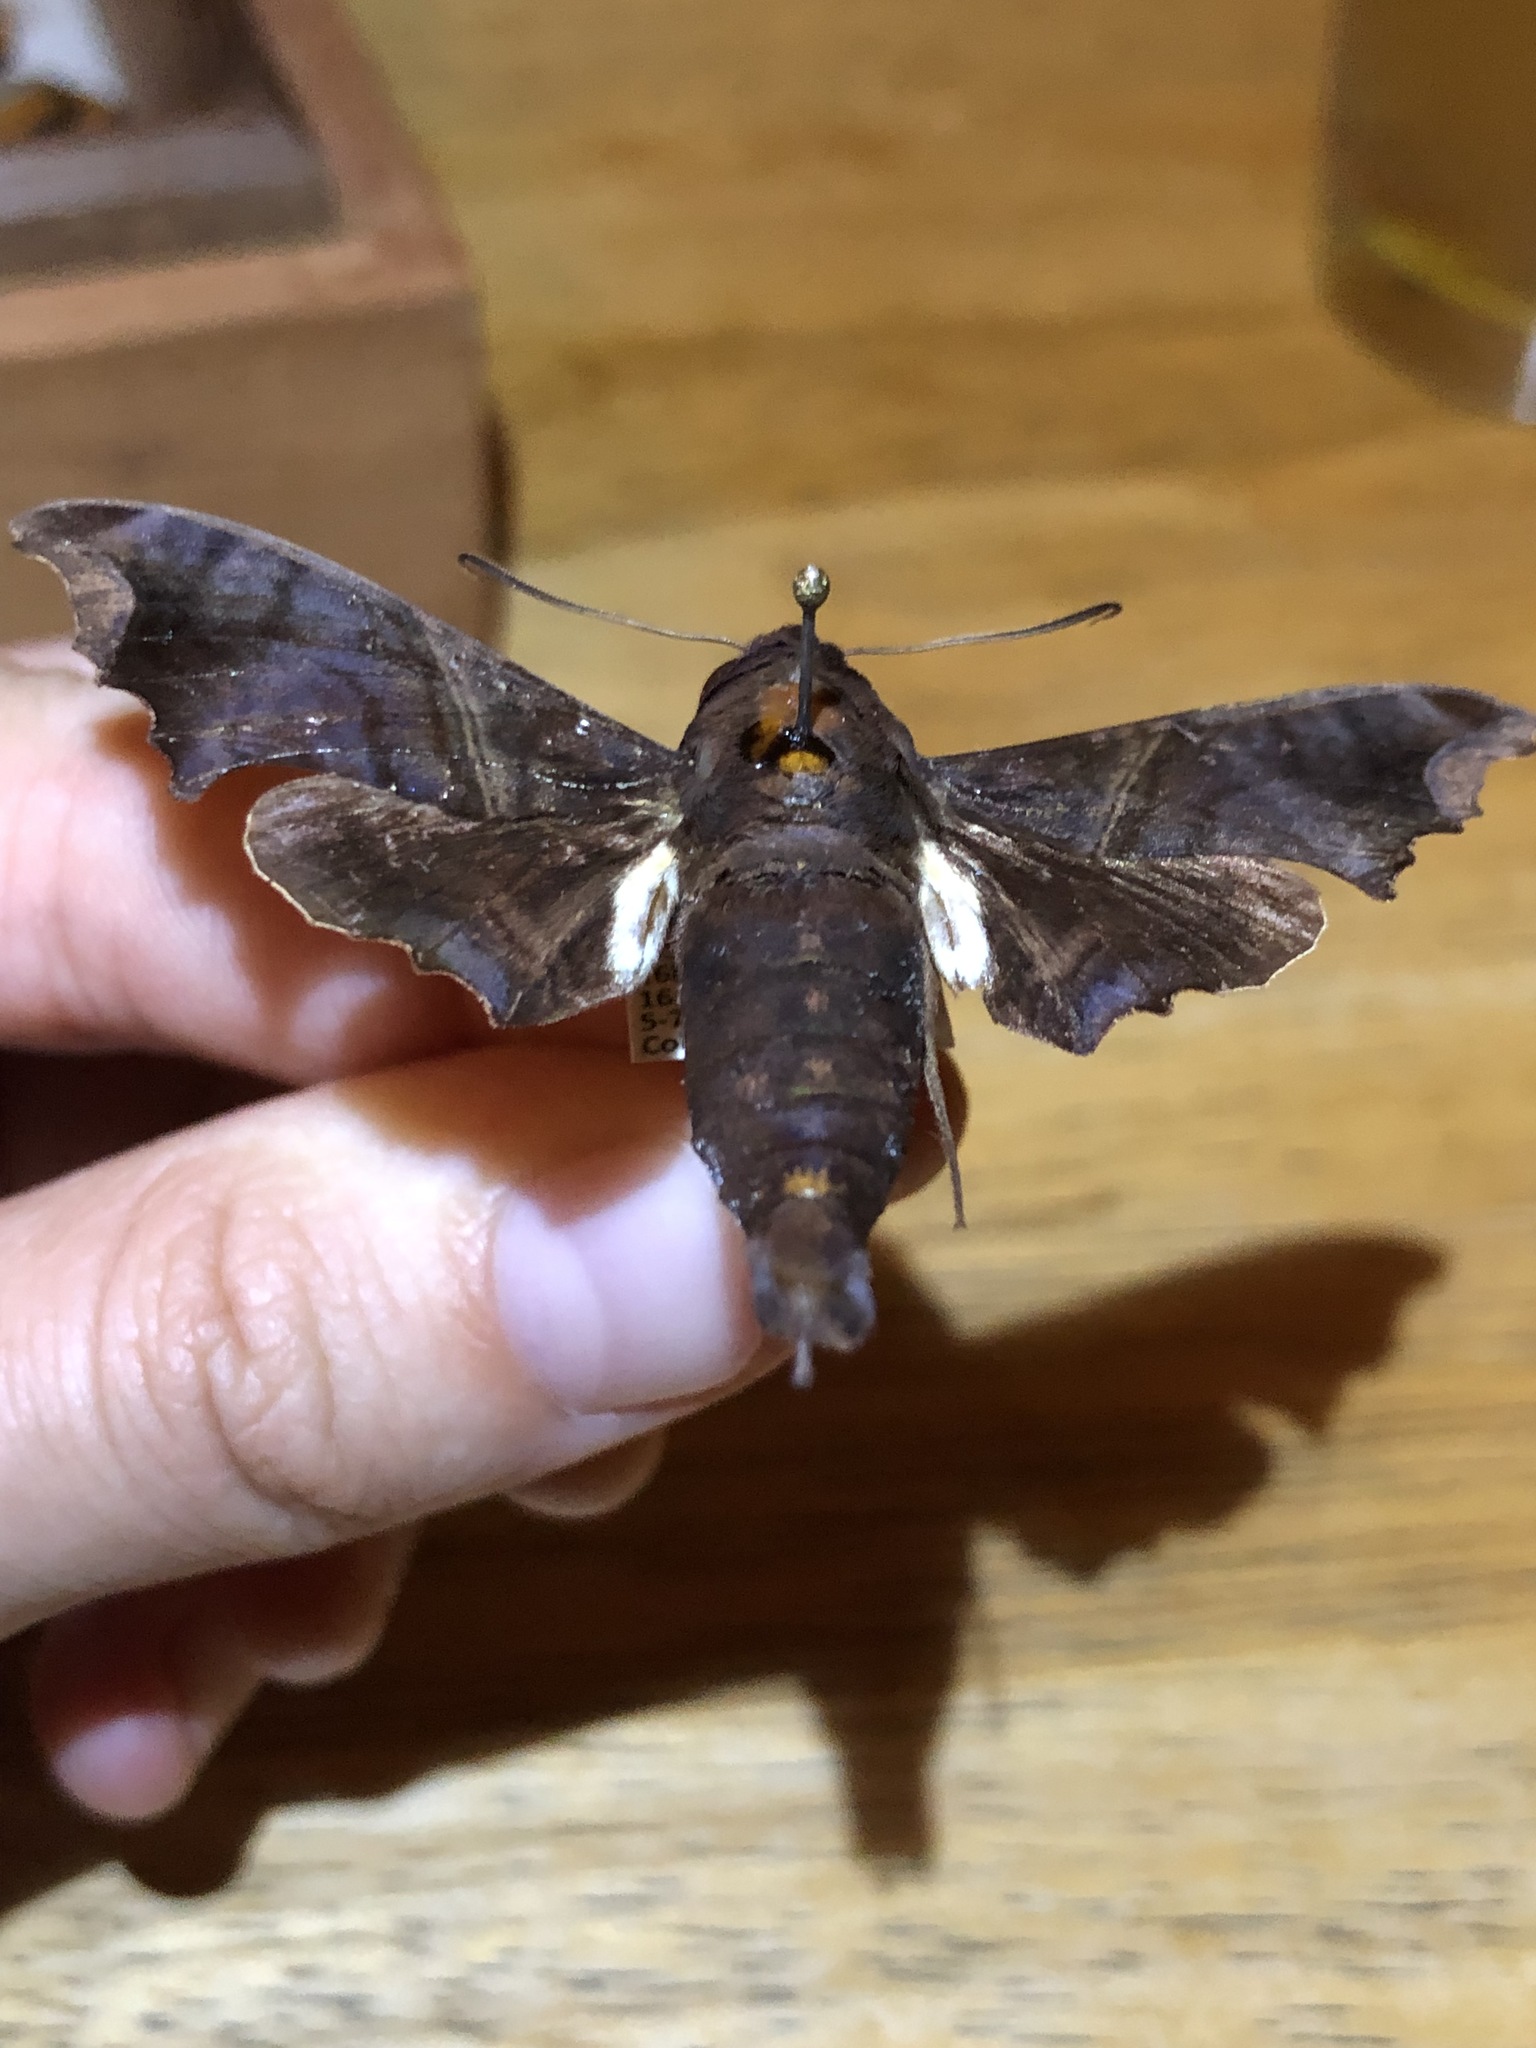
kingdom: Animalia
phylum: Arthropoda
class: Insecta
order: Lepidoptera
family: Sphingidae
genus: Enyo
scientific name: Enyo ocypete
